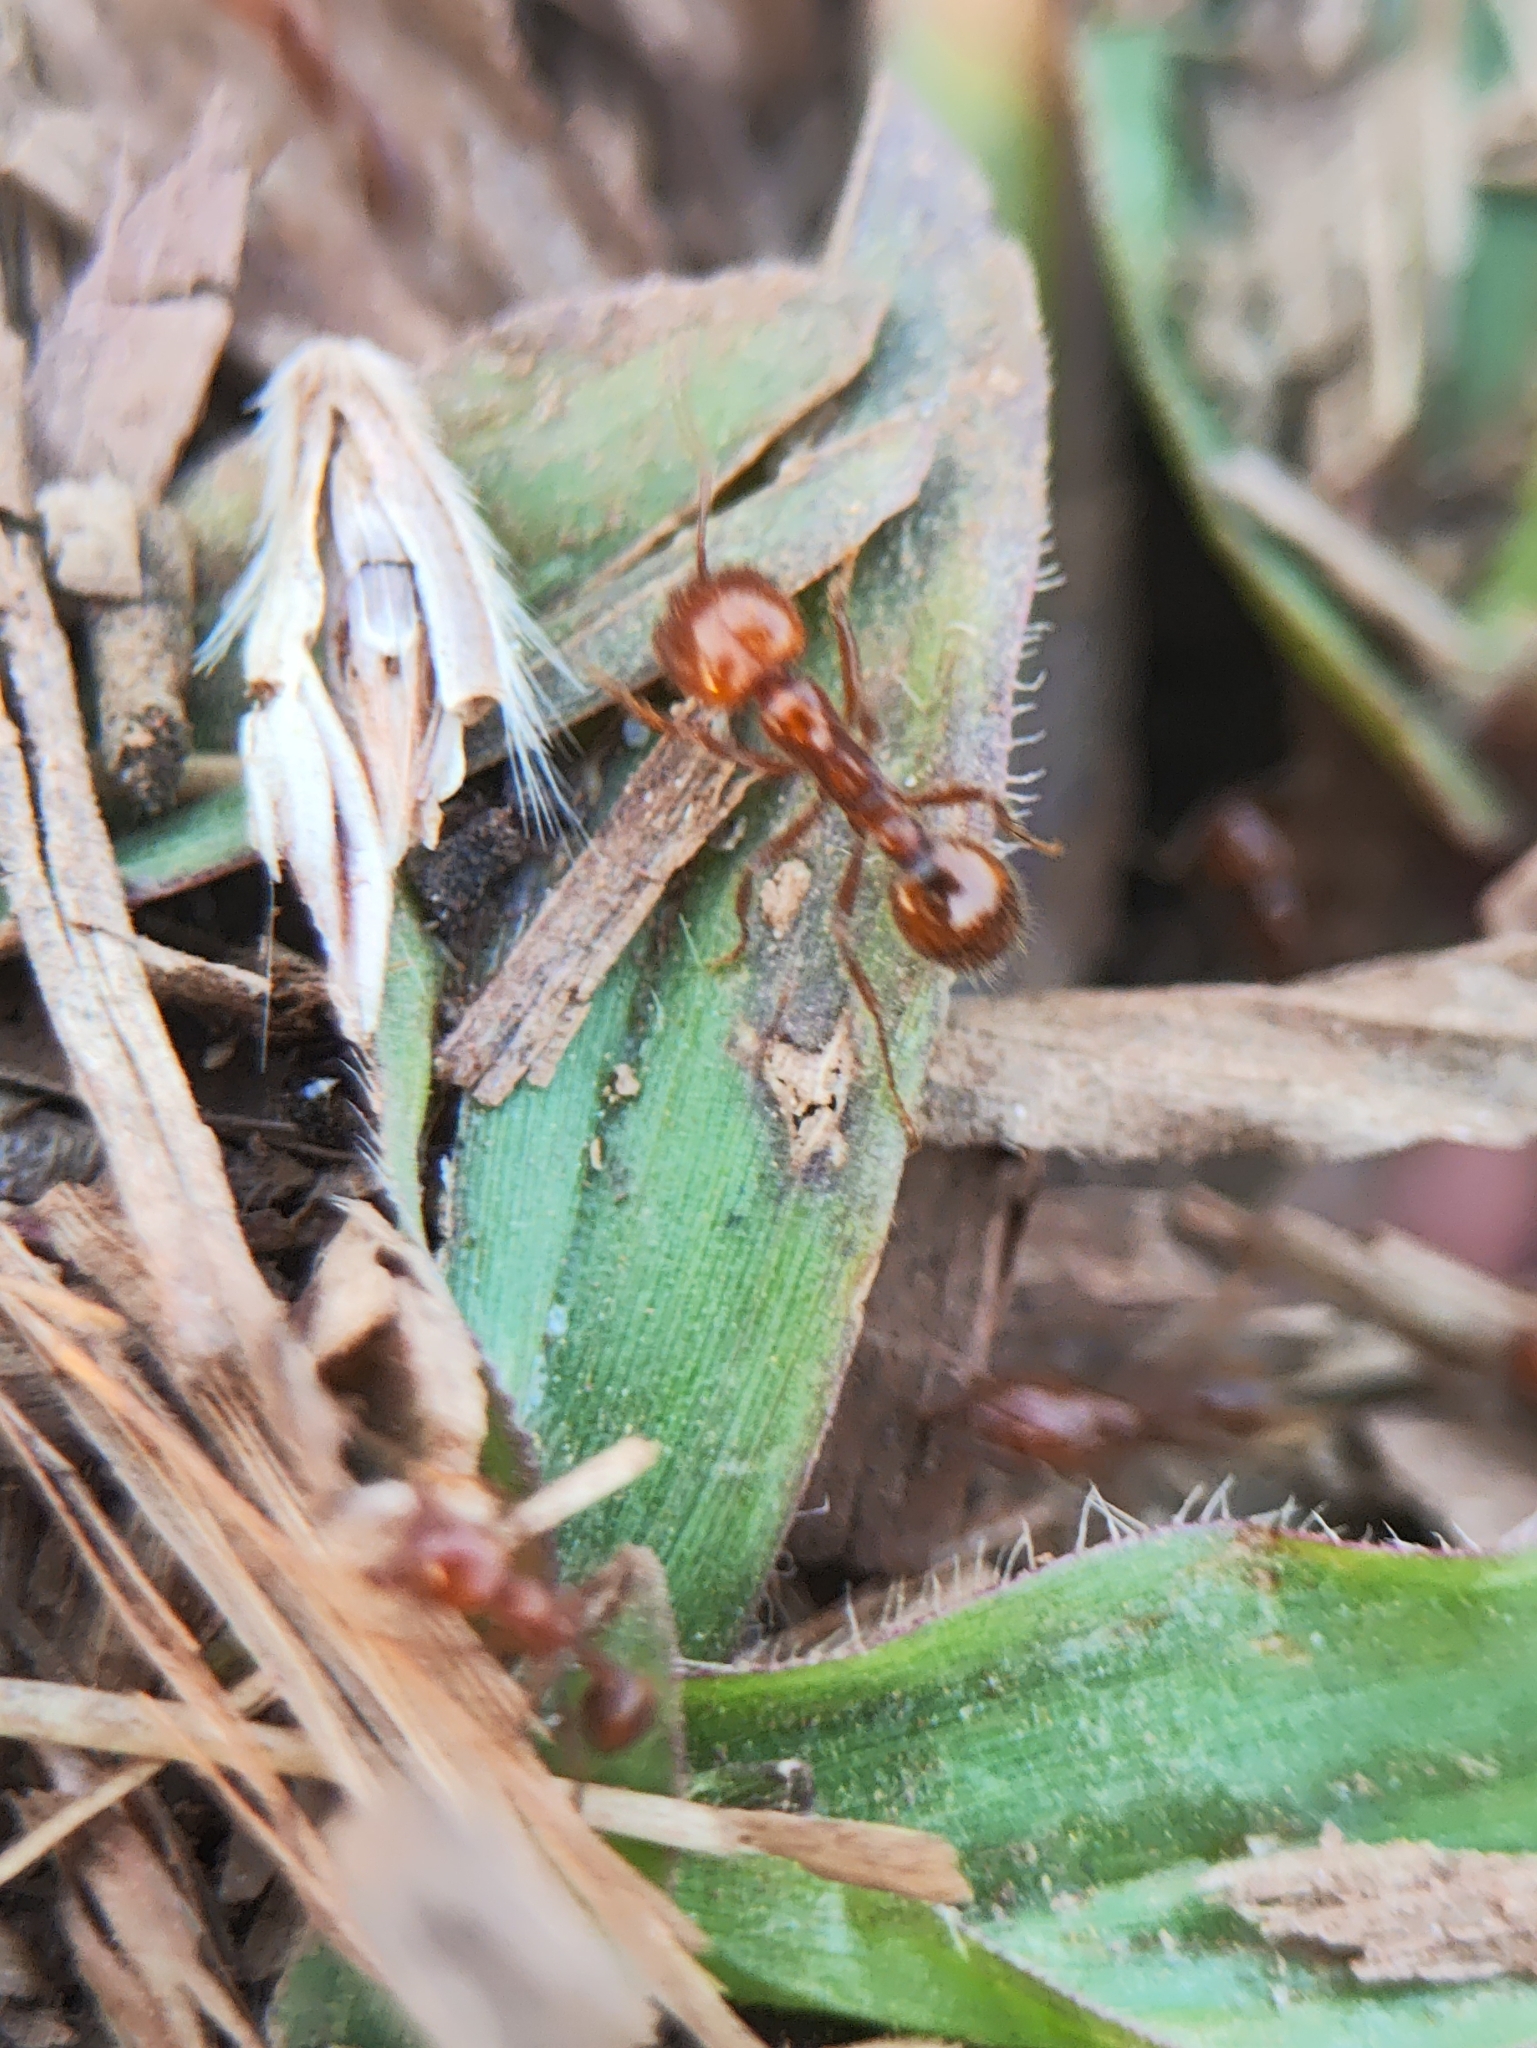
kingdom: Animalia
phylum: Arthropoda
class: Insecta
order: Hymenoptera
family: Formicidae
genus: Solenopsis
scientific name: Solenopsis geminata
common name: Tropical fire ant
